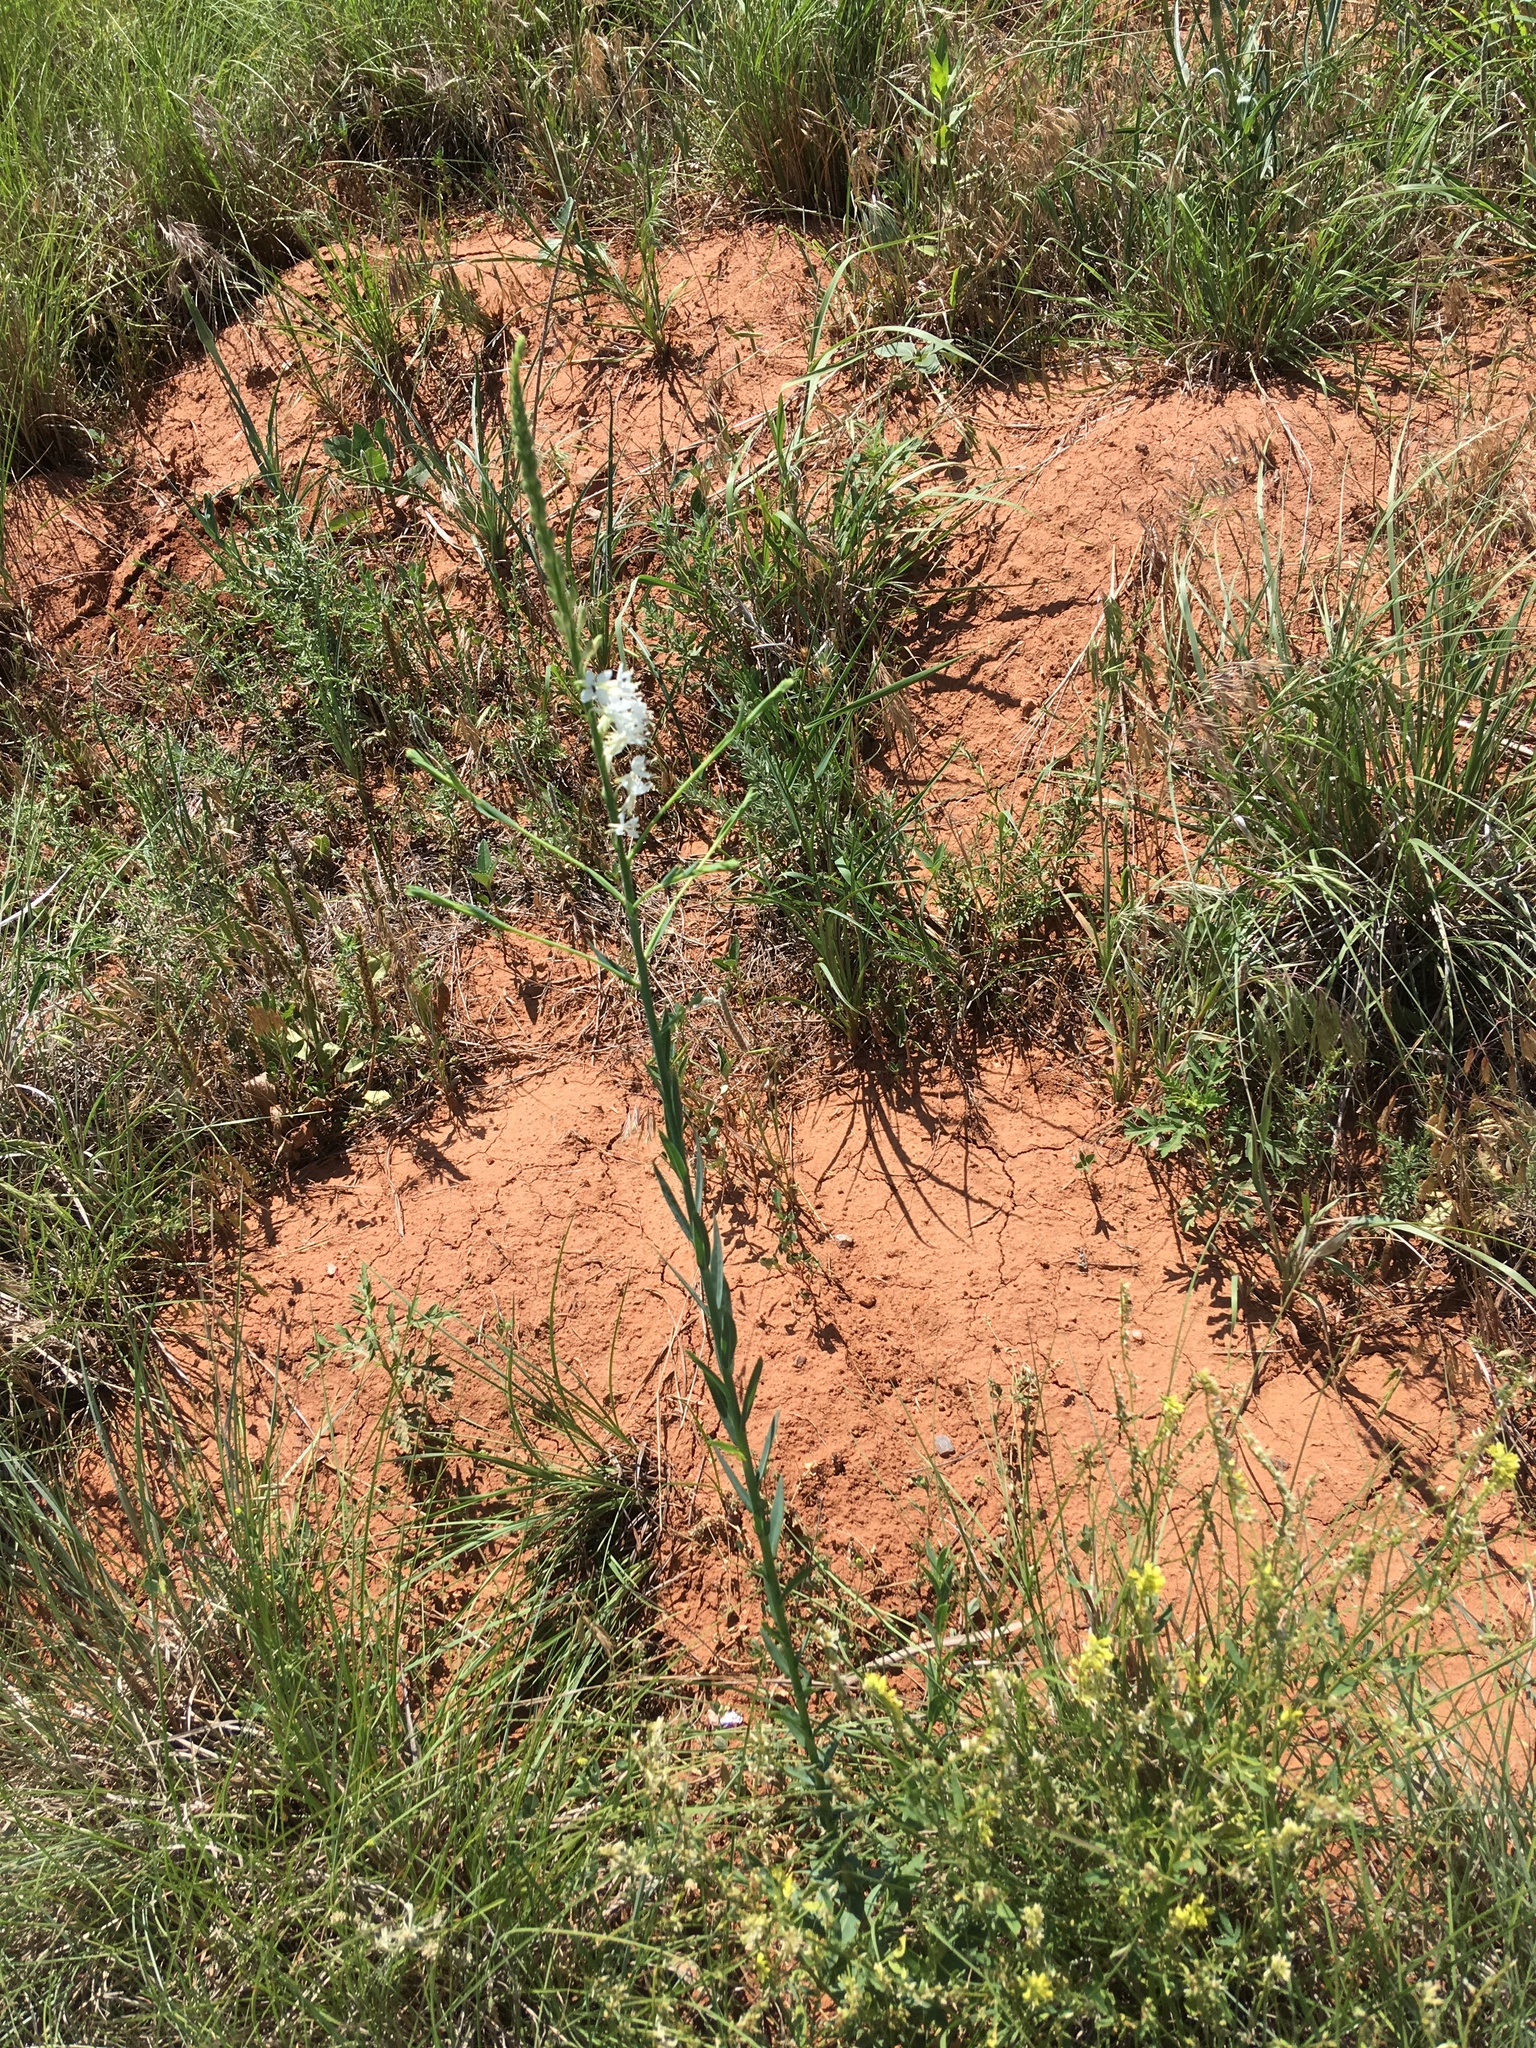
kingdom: Plantae
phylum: Tracheophyta
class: Magnoliopsida
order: Myrtales
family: Onagraceae
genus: Oenothera
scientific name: Oenothera glaucifolia
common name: False gaura
